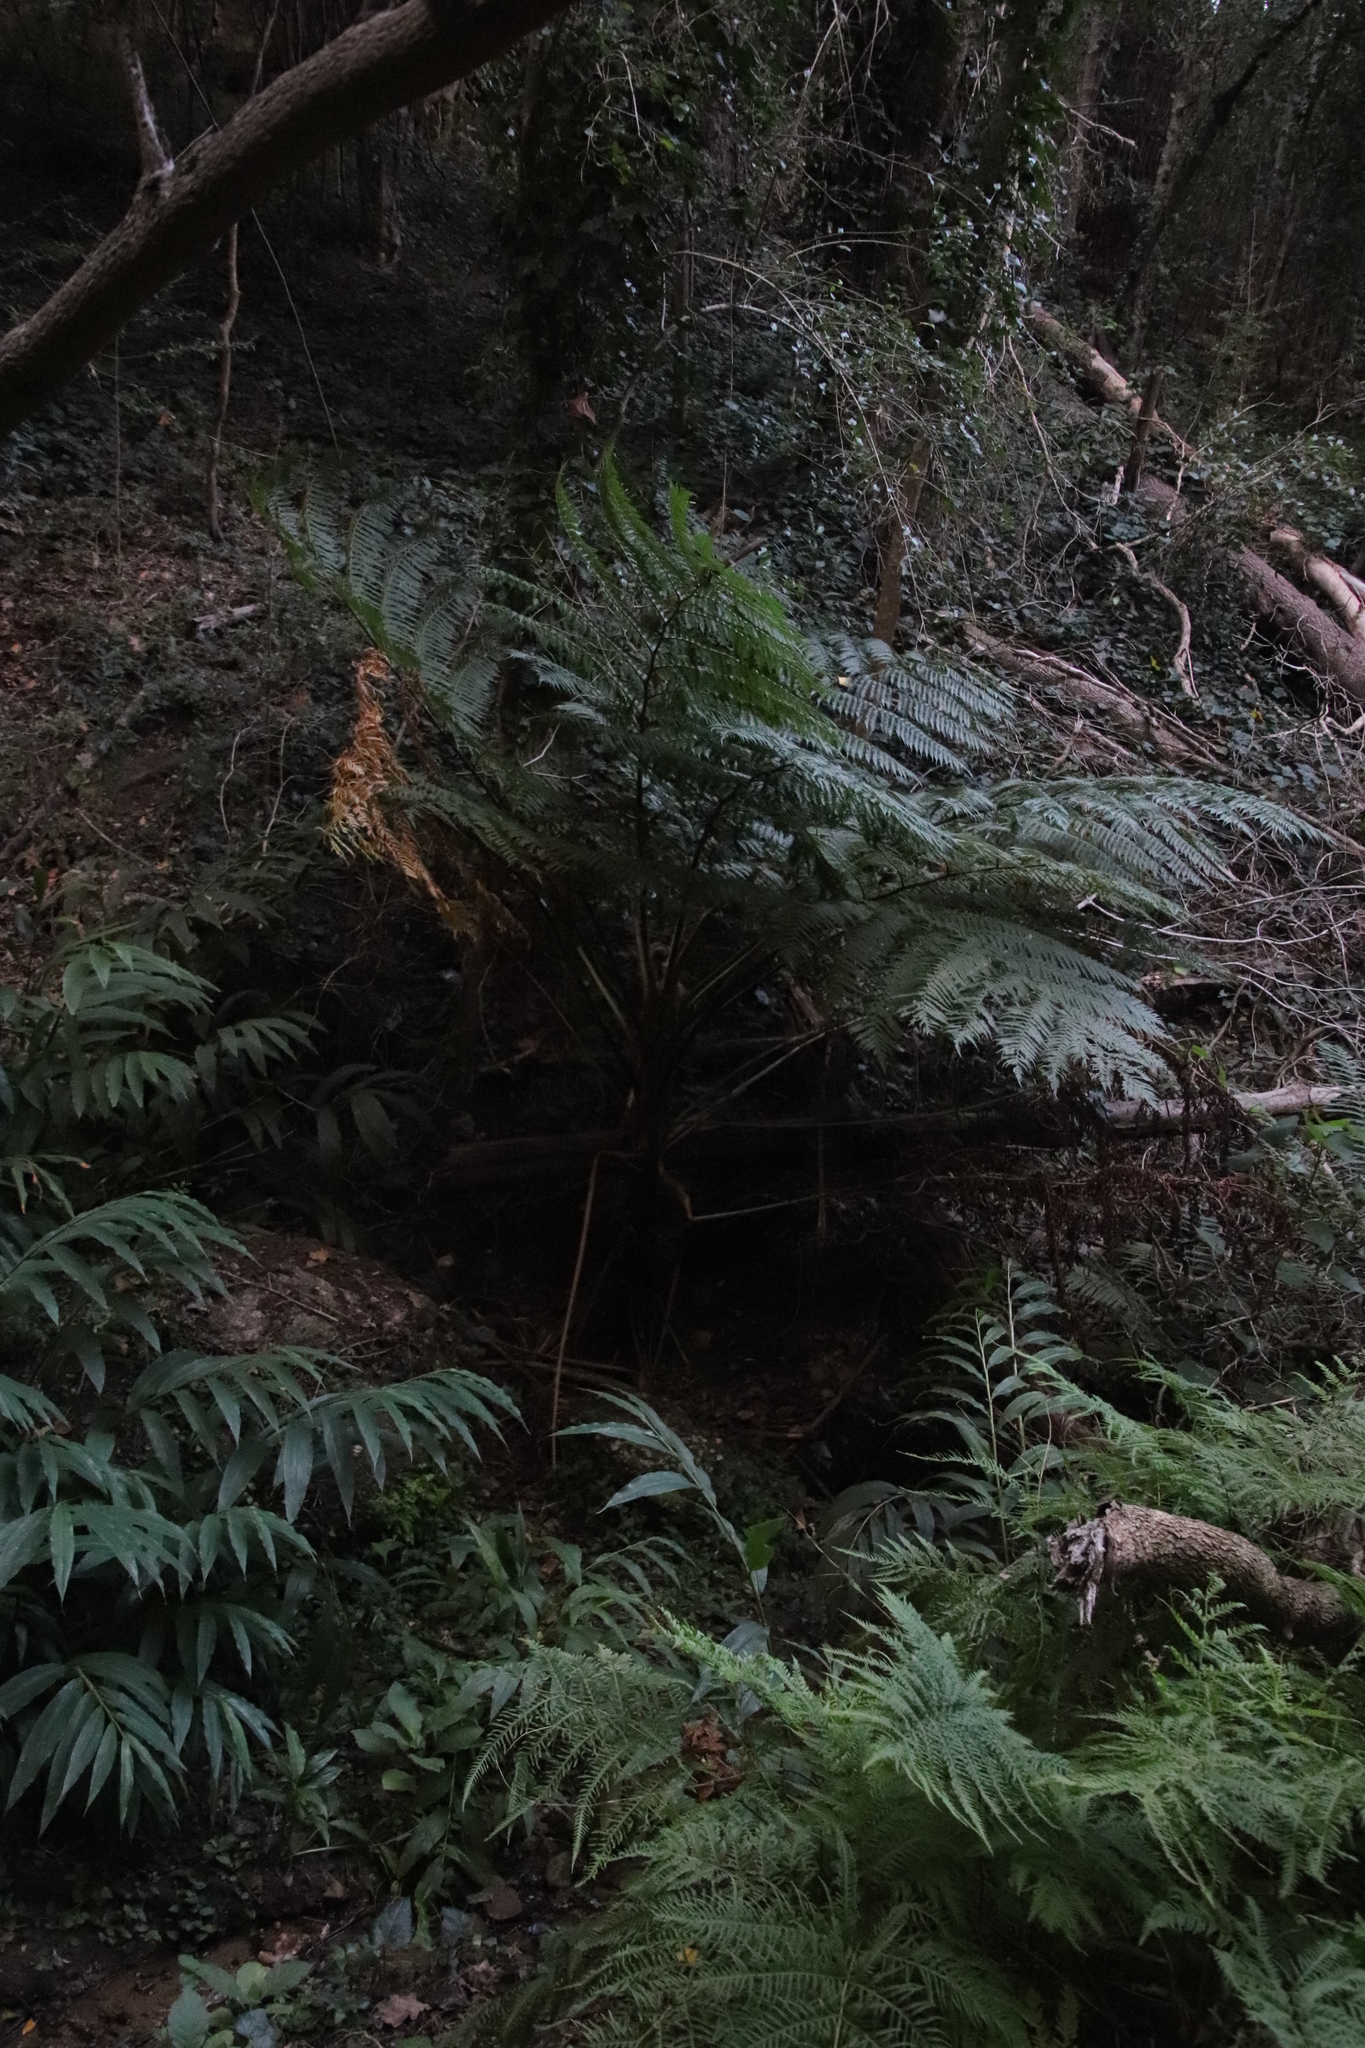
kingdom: Plantae
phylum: Tracheophyta
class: Polypodiopsida
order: Cyatheales
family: Cyatheaceae
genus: Sphaeropteris
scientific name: Sphaeropteris cooperi
